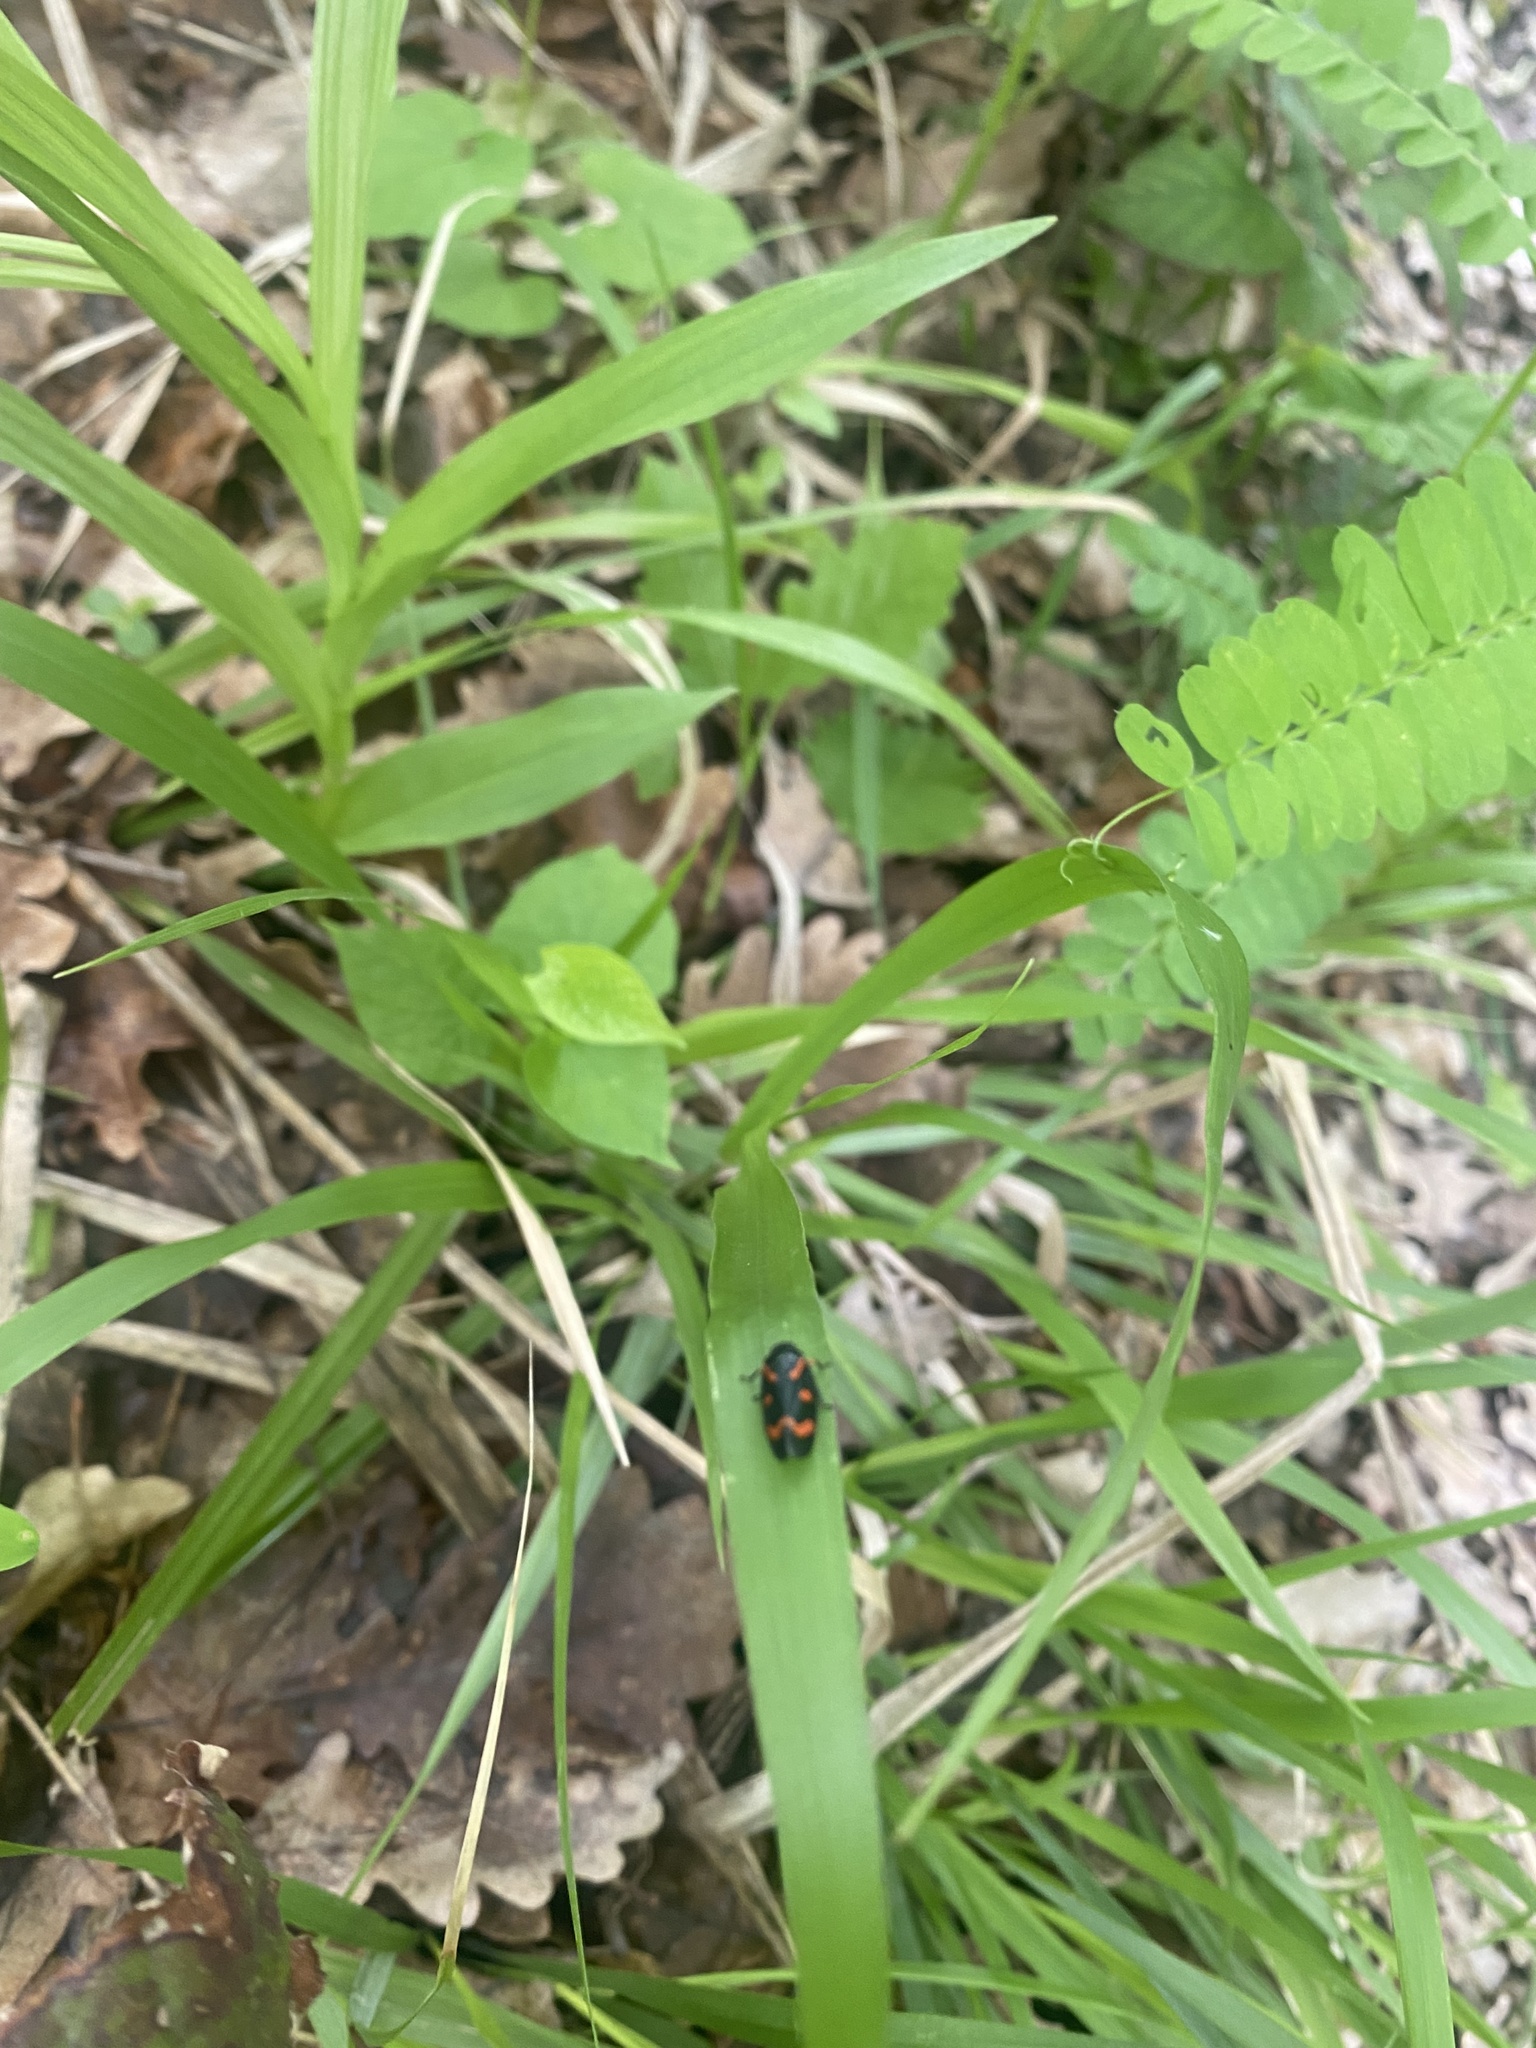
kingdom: Animalia
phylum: Arthropoda
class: Insecta
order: Hemiptera
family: Cercopidae
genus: Cercopis
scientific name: Cercopis intermedia
